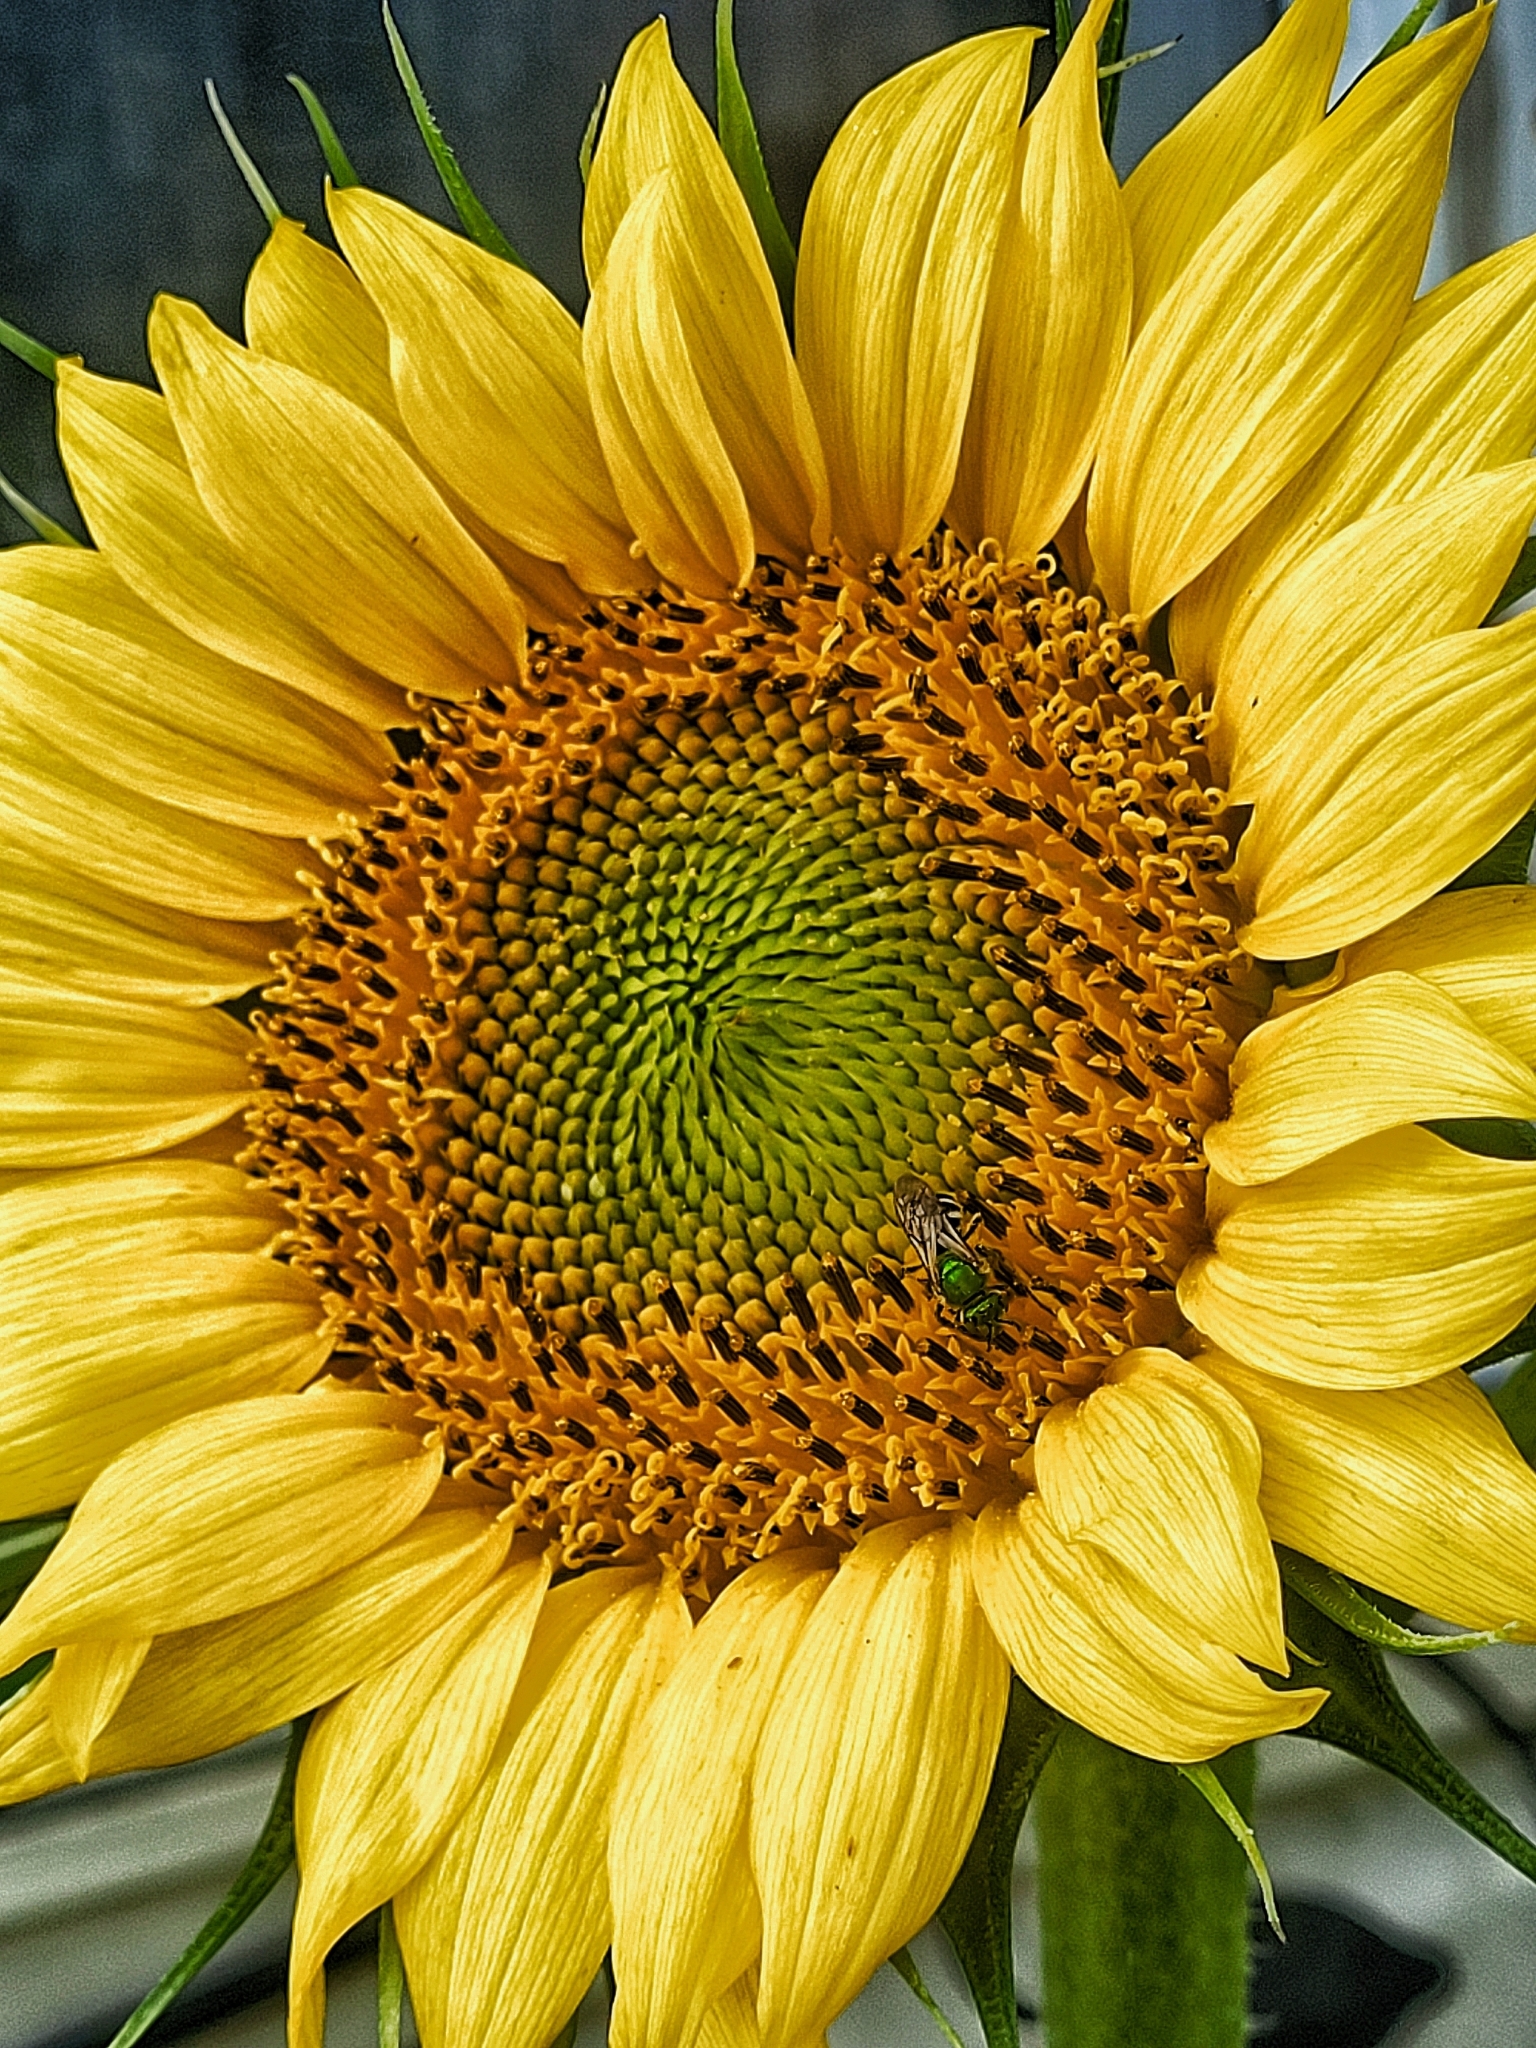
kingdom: Plantae
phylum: Tracheophyta
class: Magnoliopsida
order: Asterales
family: Asteraceae
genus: Helianthus
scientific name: Helianthus annuus
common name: Sunflower
